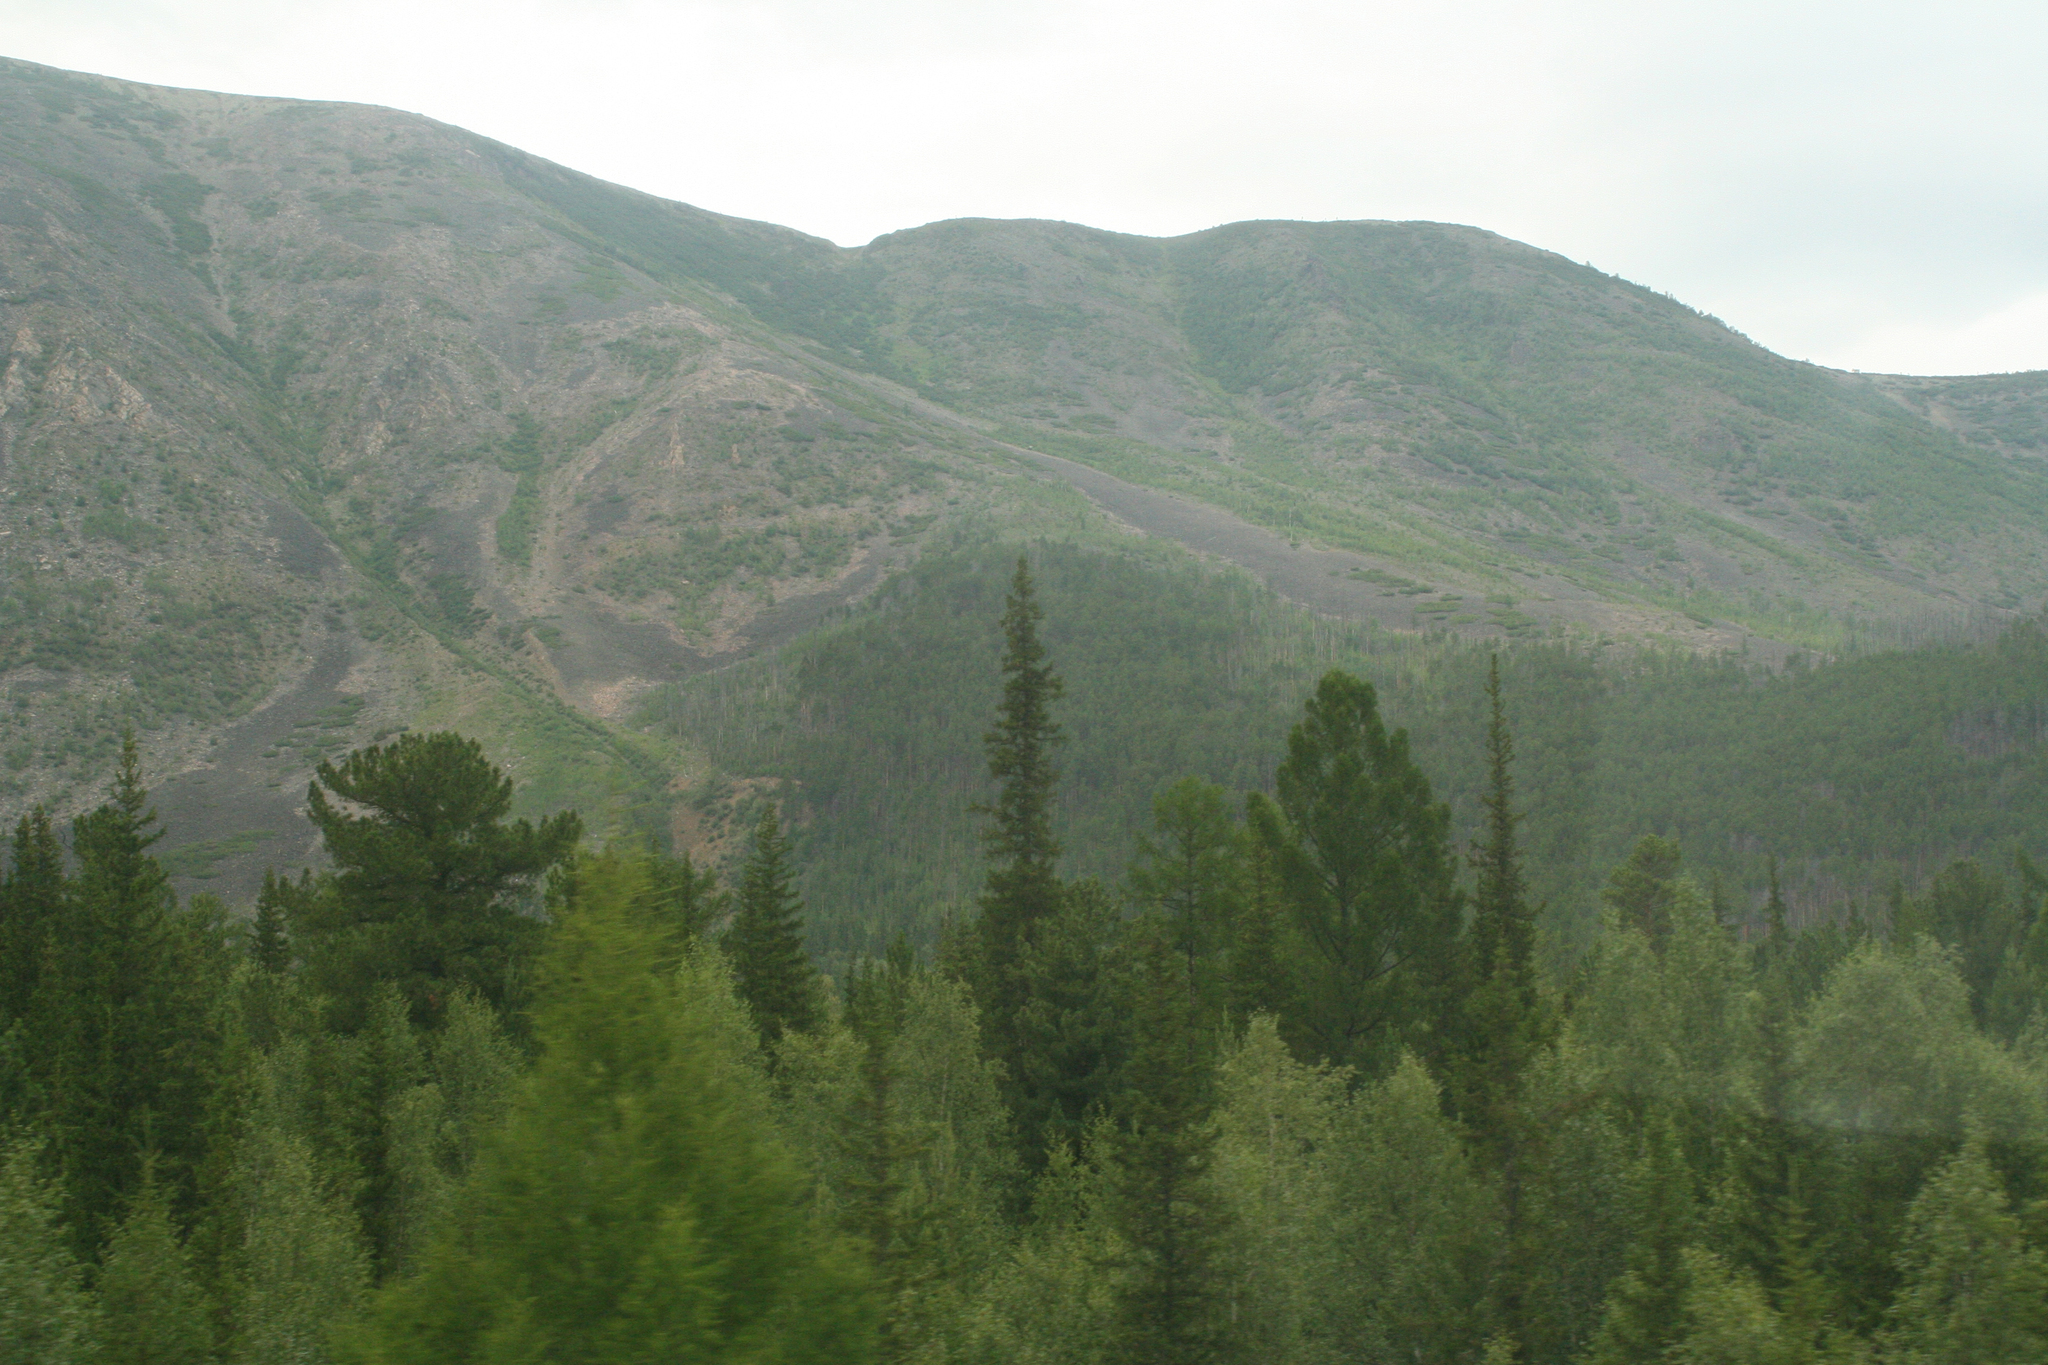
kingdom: Plantae
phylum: Tracheophyta
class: Pinopsida
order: Pinales
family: Pinaceae
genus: Pinus
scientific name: Pinus sibirica
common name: Siberian pine
